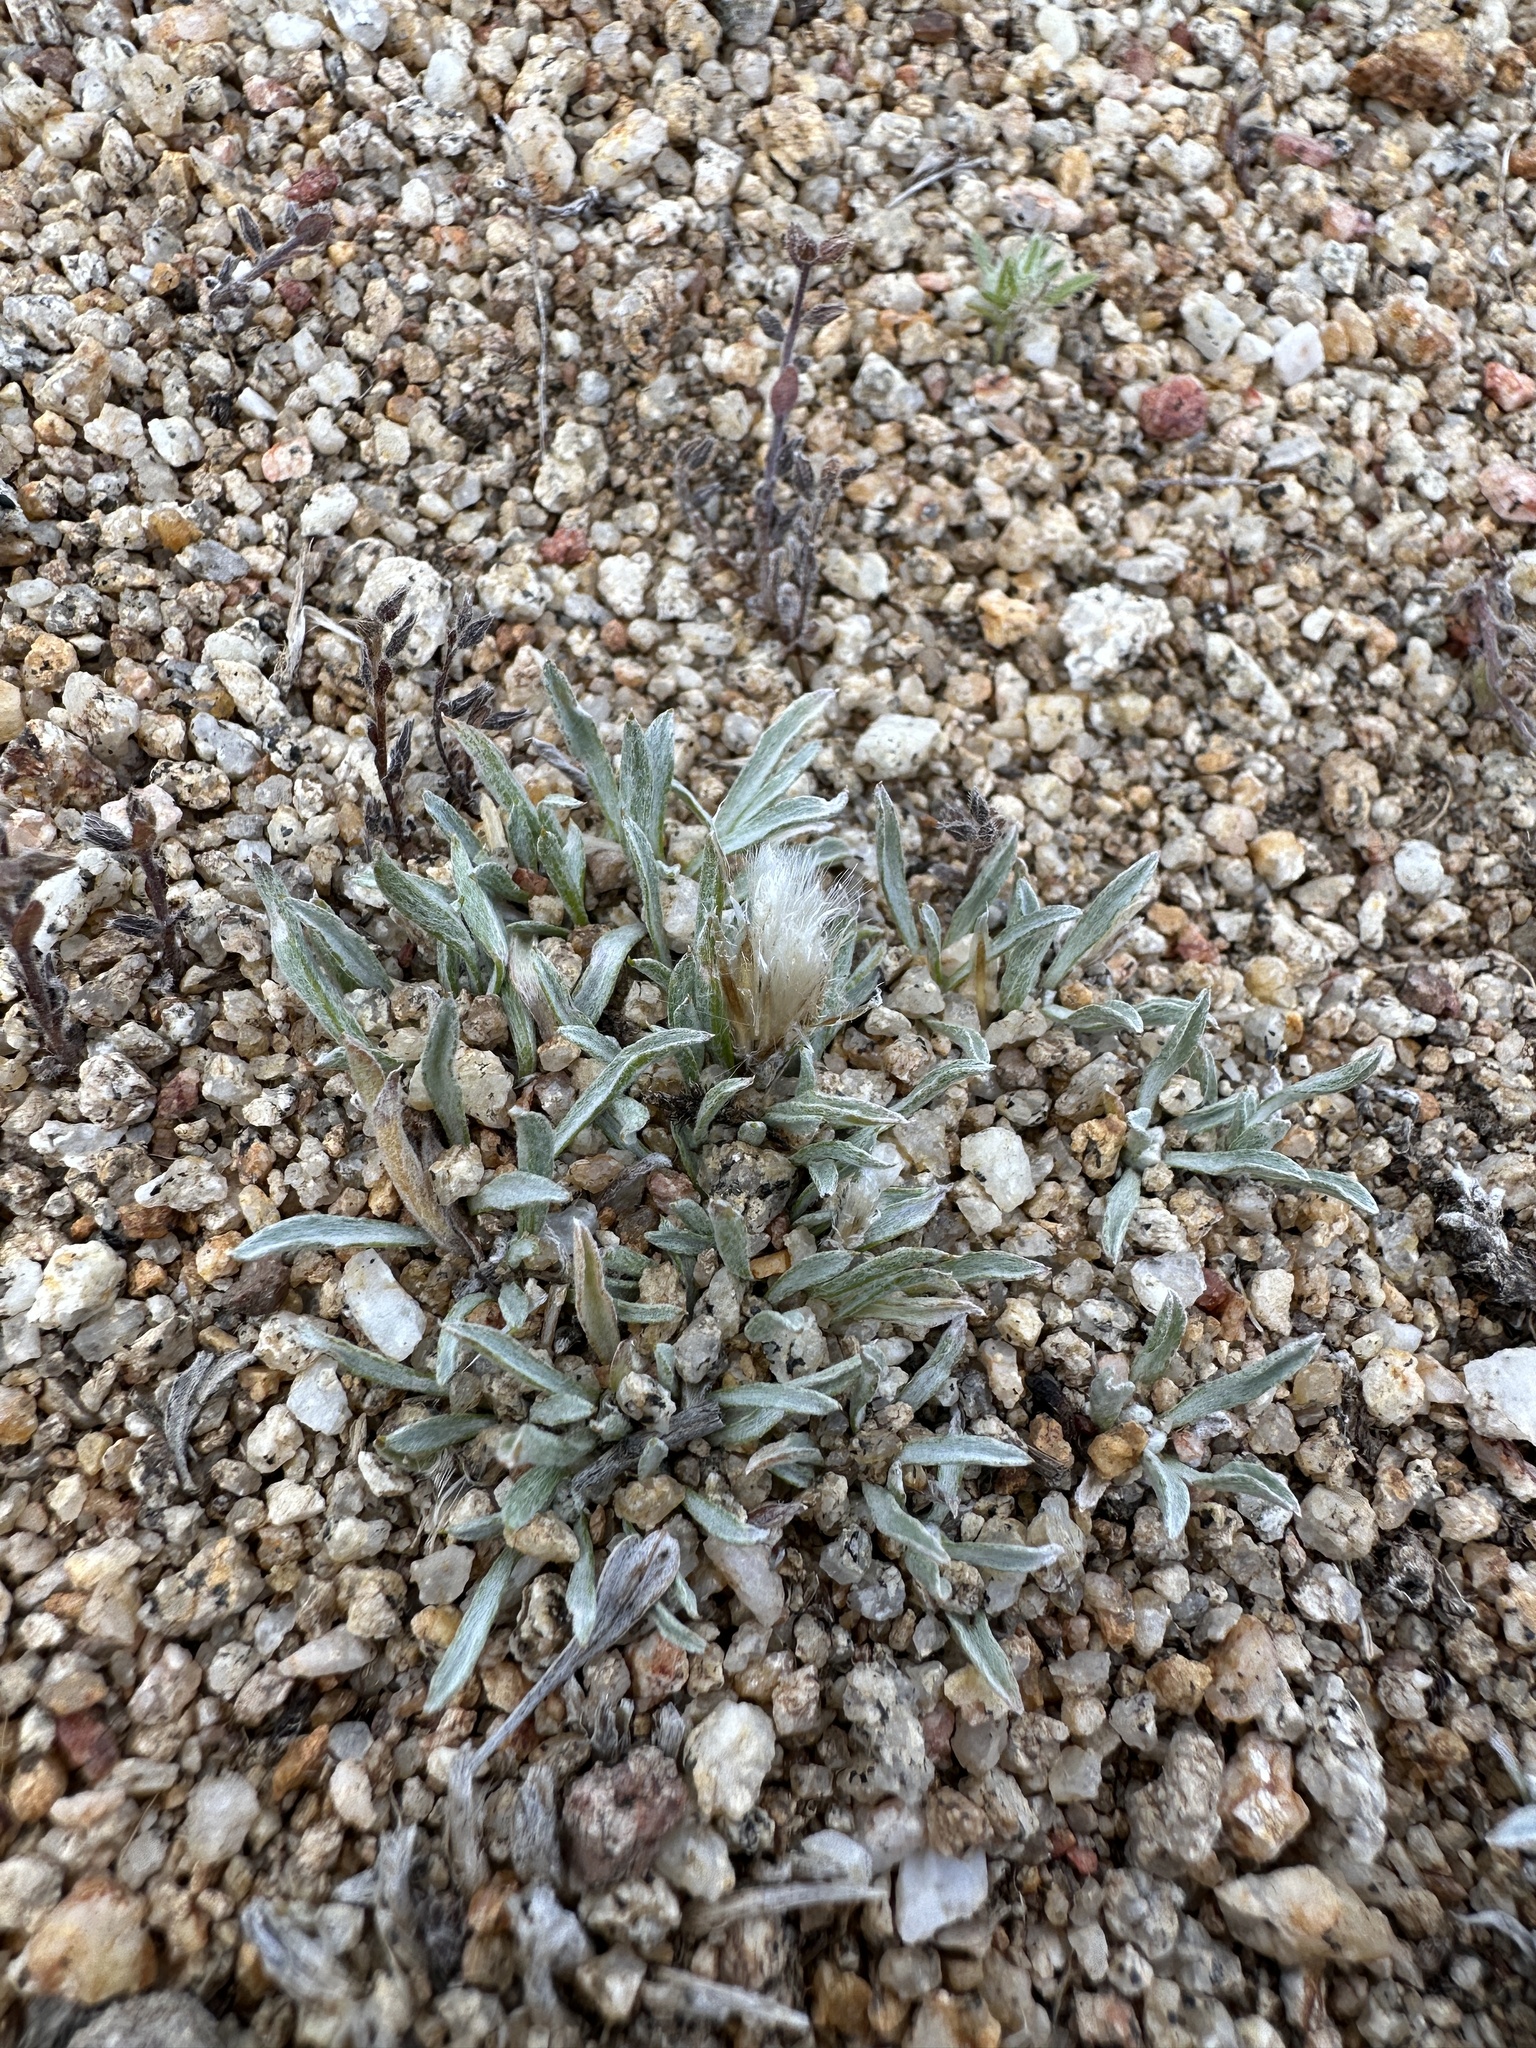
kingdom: Plantae
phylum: Tracheophyta
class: Magnoliopsida
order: Asterales
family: Asteraceae
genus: Antennaria
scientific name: Antennaria dimorpha
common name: Cushion pussytoes
